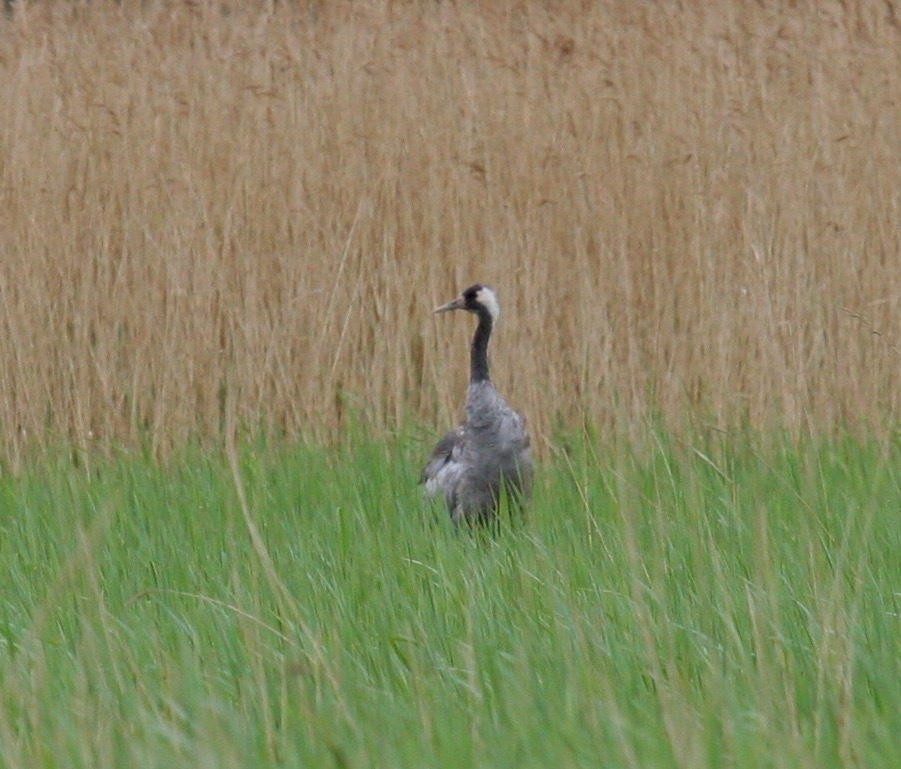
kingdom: Animalia
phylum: Chordata
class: Aves
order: Gruiformes
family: Gruidae
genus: Grus
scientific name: Grus grus
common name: Common crane
